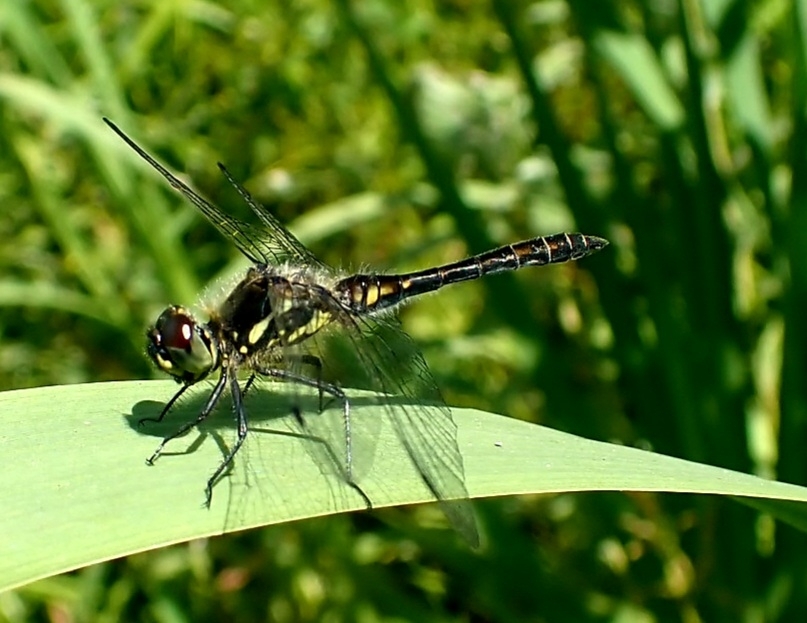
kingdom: Animalia
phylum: Arthropoda
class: Insecta
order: Odonata
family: Libellulidae
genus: Sympetrum
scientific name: Sympetrum danae
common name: Black darter
